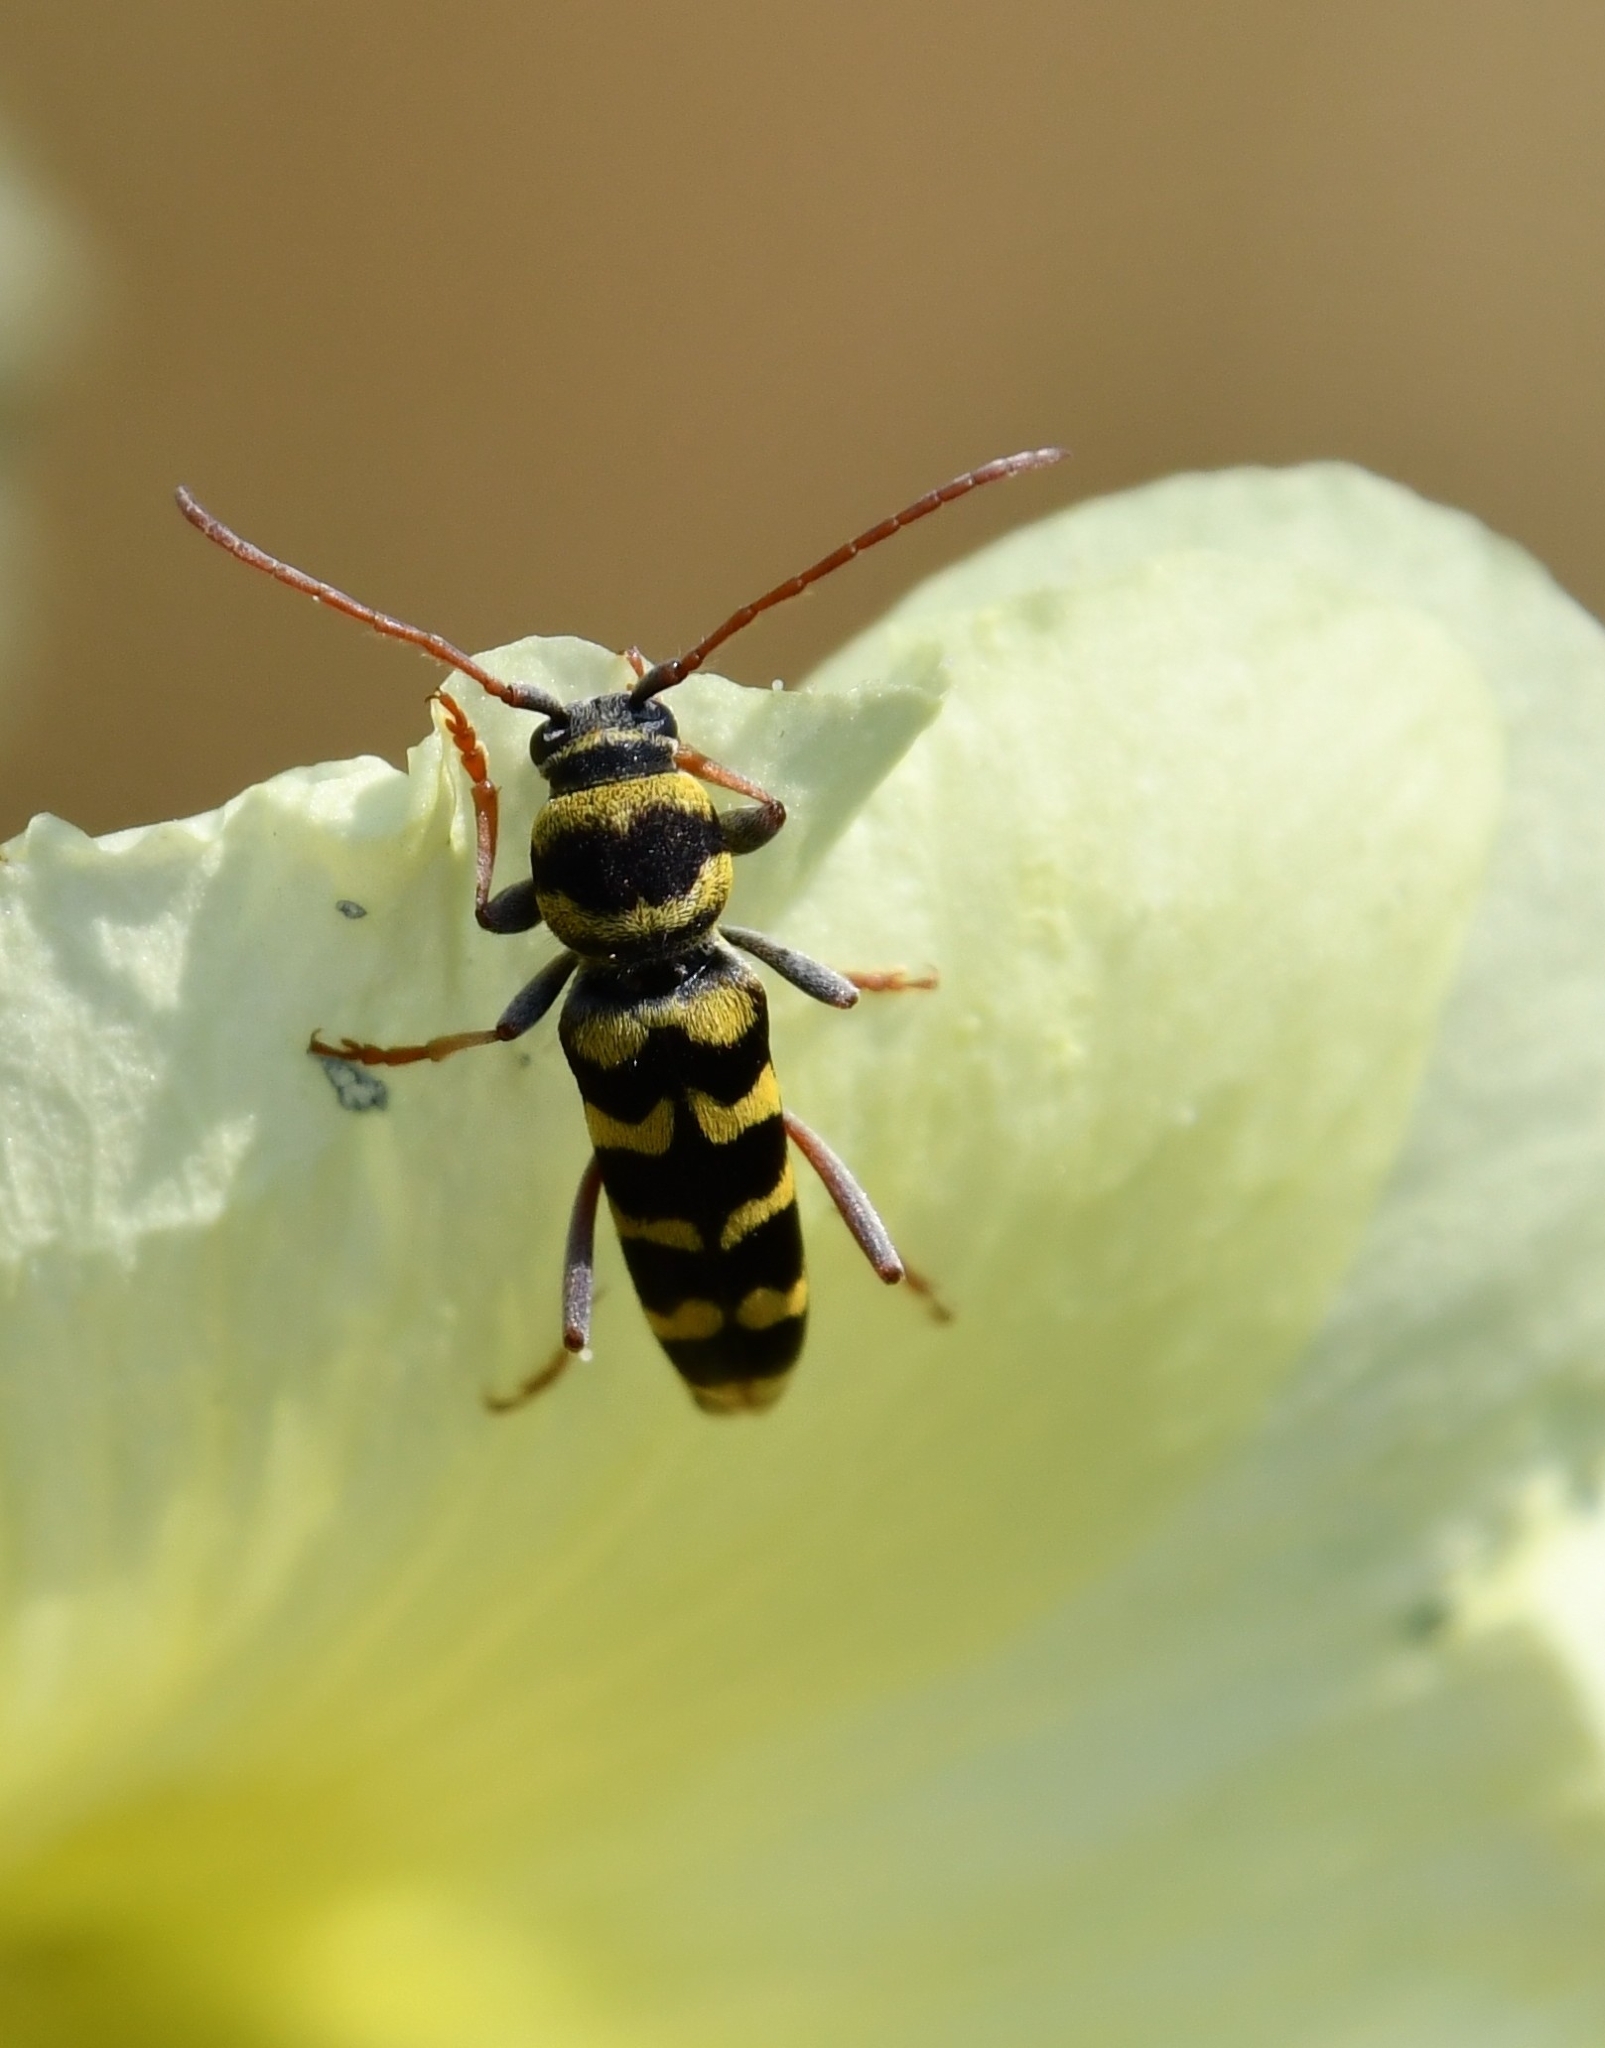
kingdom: Animalia
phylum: Arthropoda
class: Insecta
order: Coleoptera
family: Cerambycidae
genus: Plagionotus
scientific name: Plagionotus floralis
